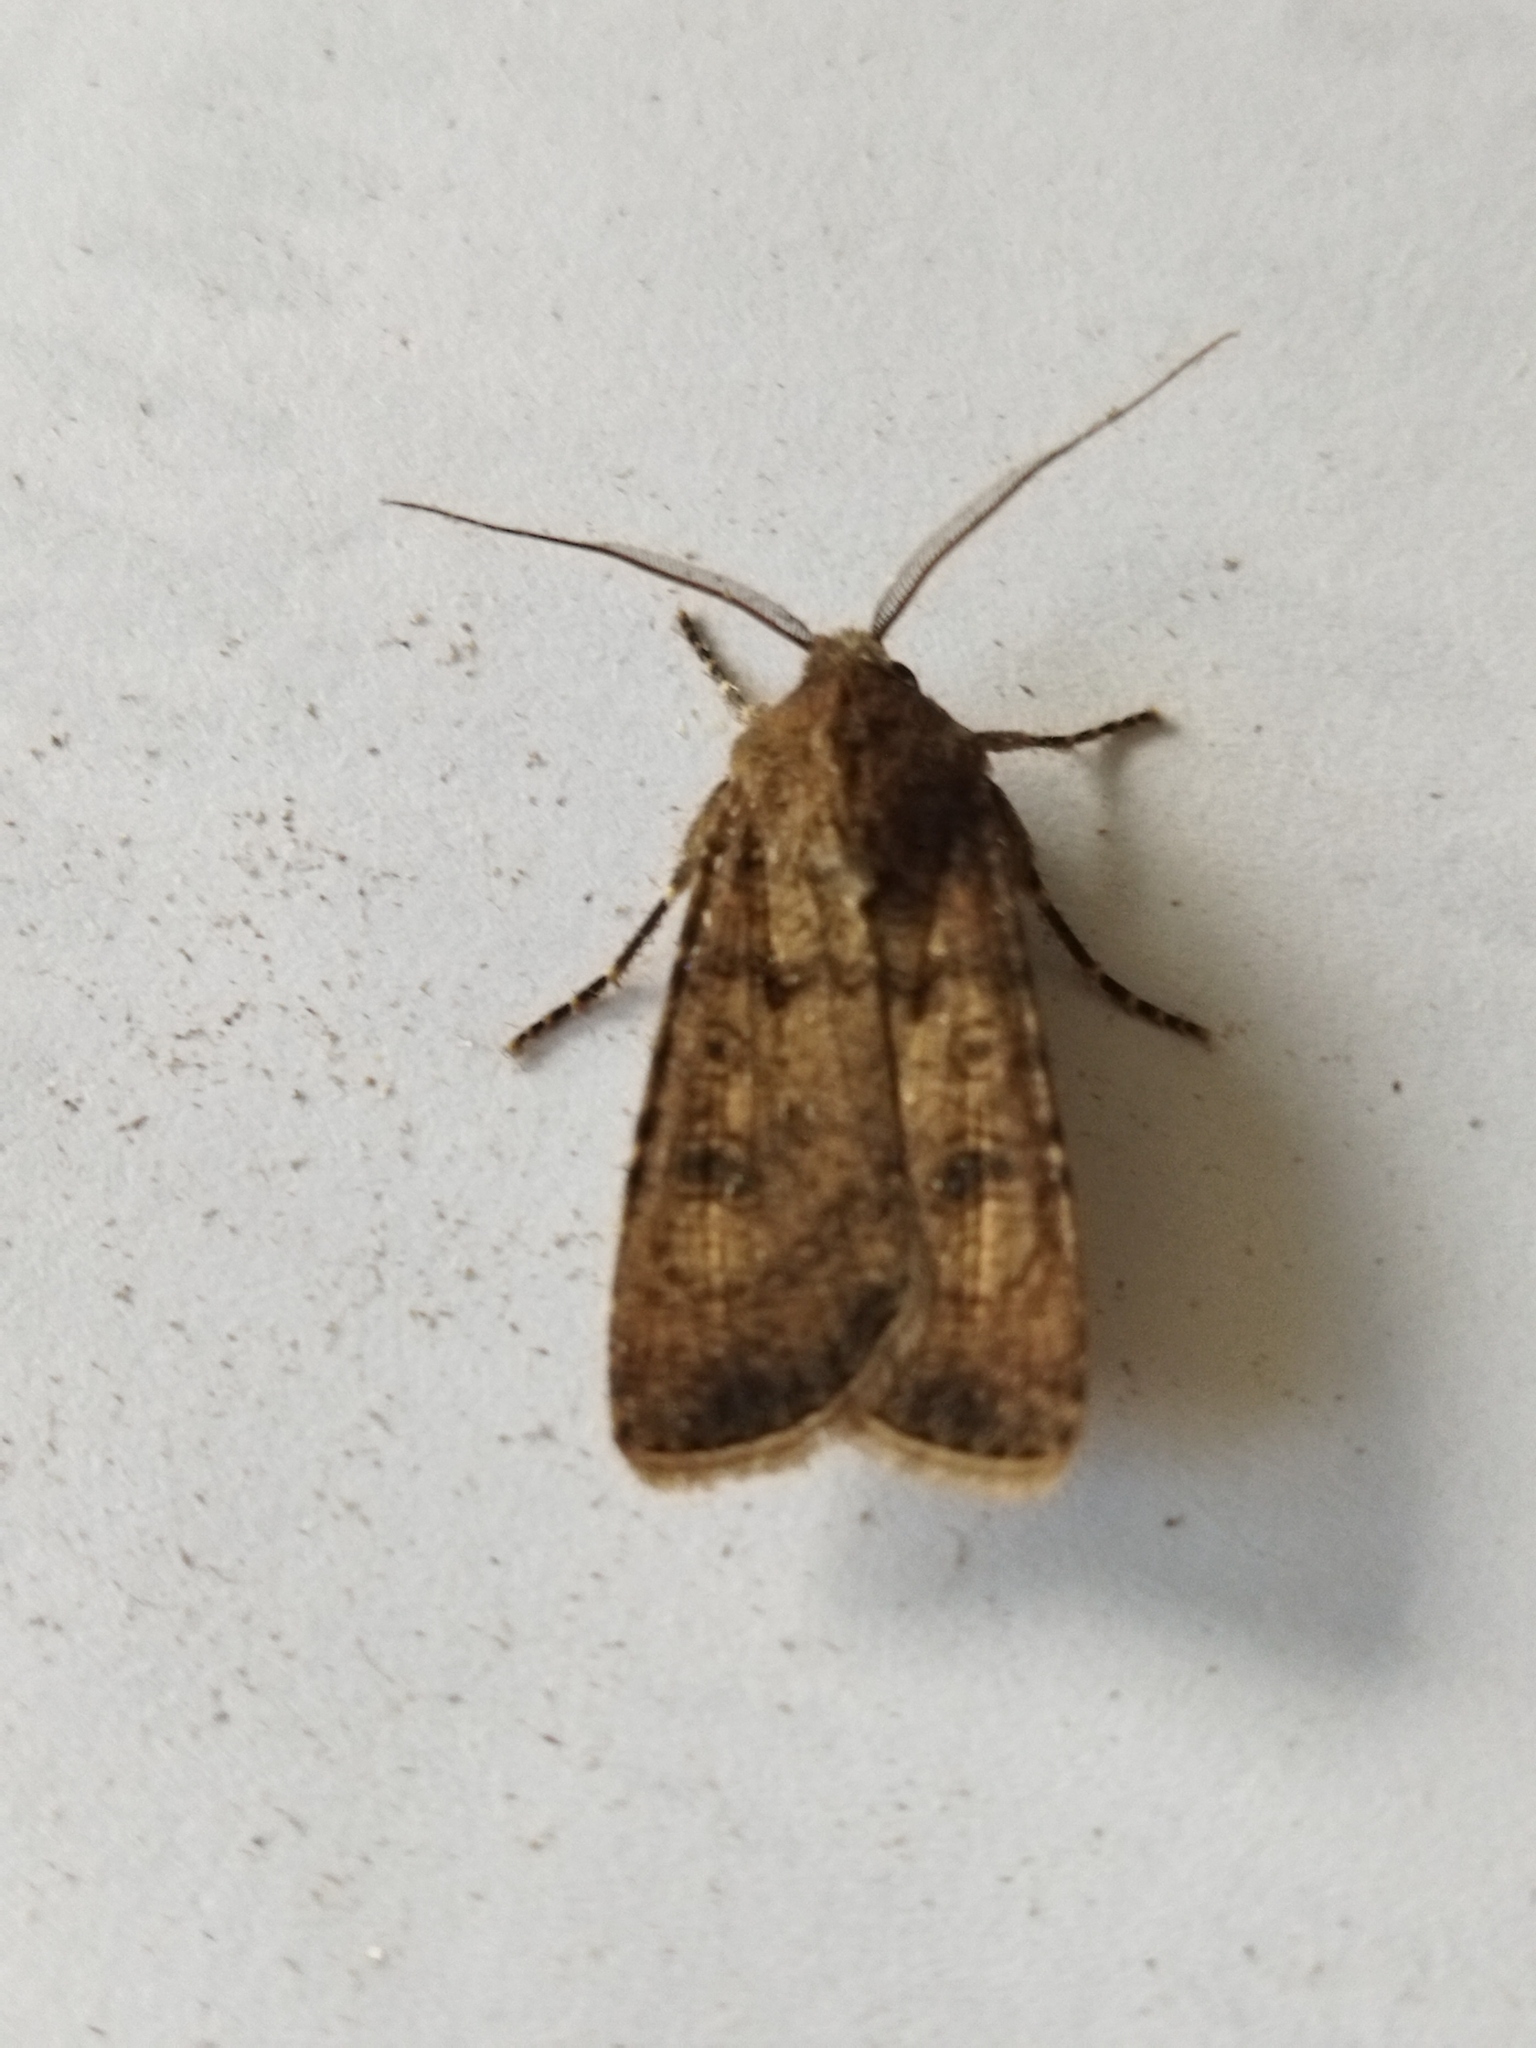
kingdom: Animalia
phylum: Arthropoda
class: Insecta
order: Lepidoptera
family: Noctuidae
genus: Agrotis
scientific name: Agrotis segetum
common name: Turnip moth
